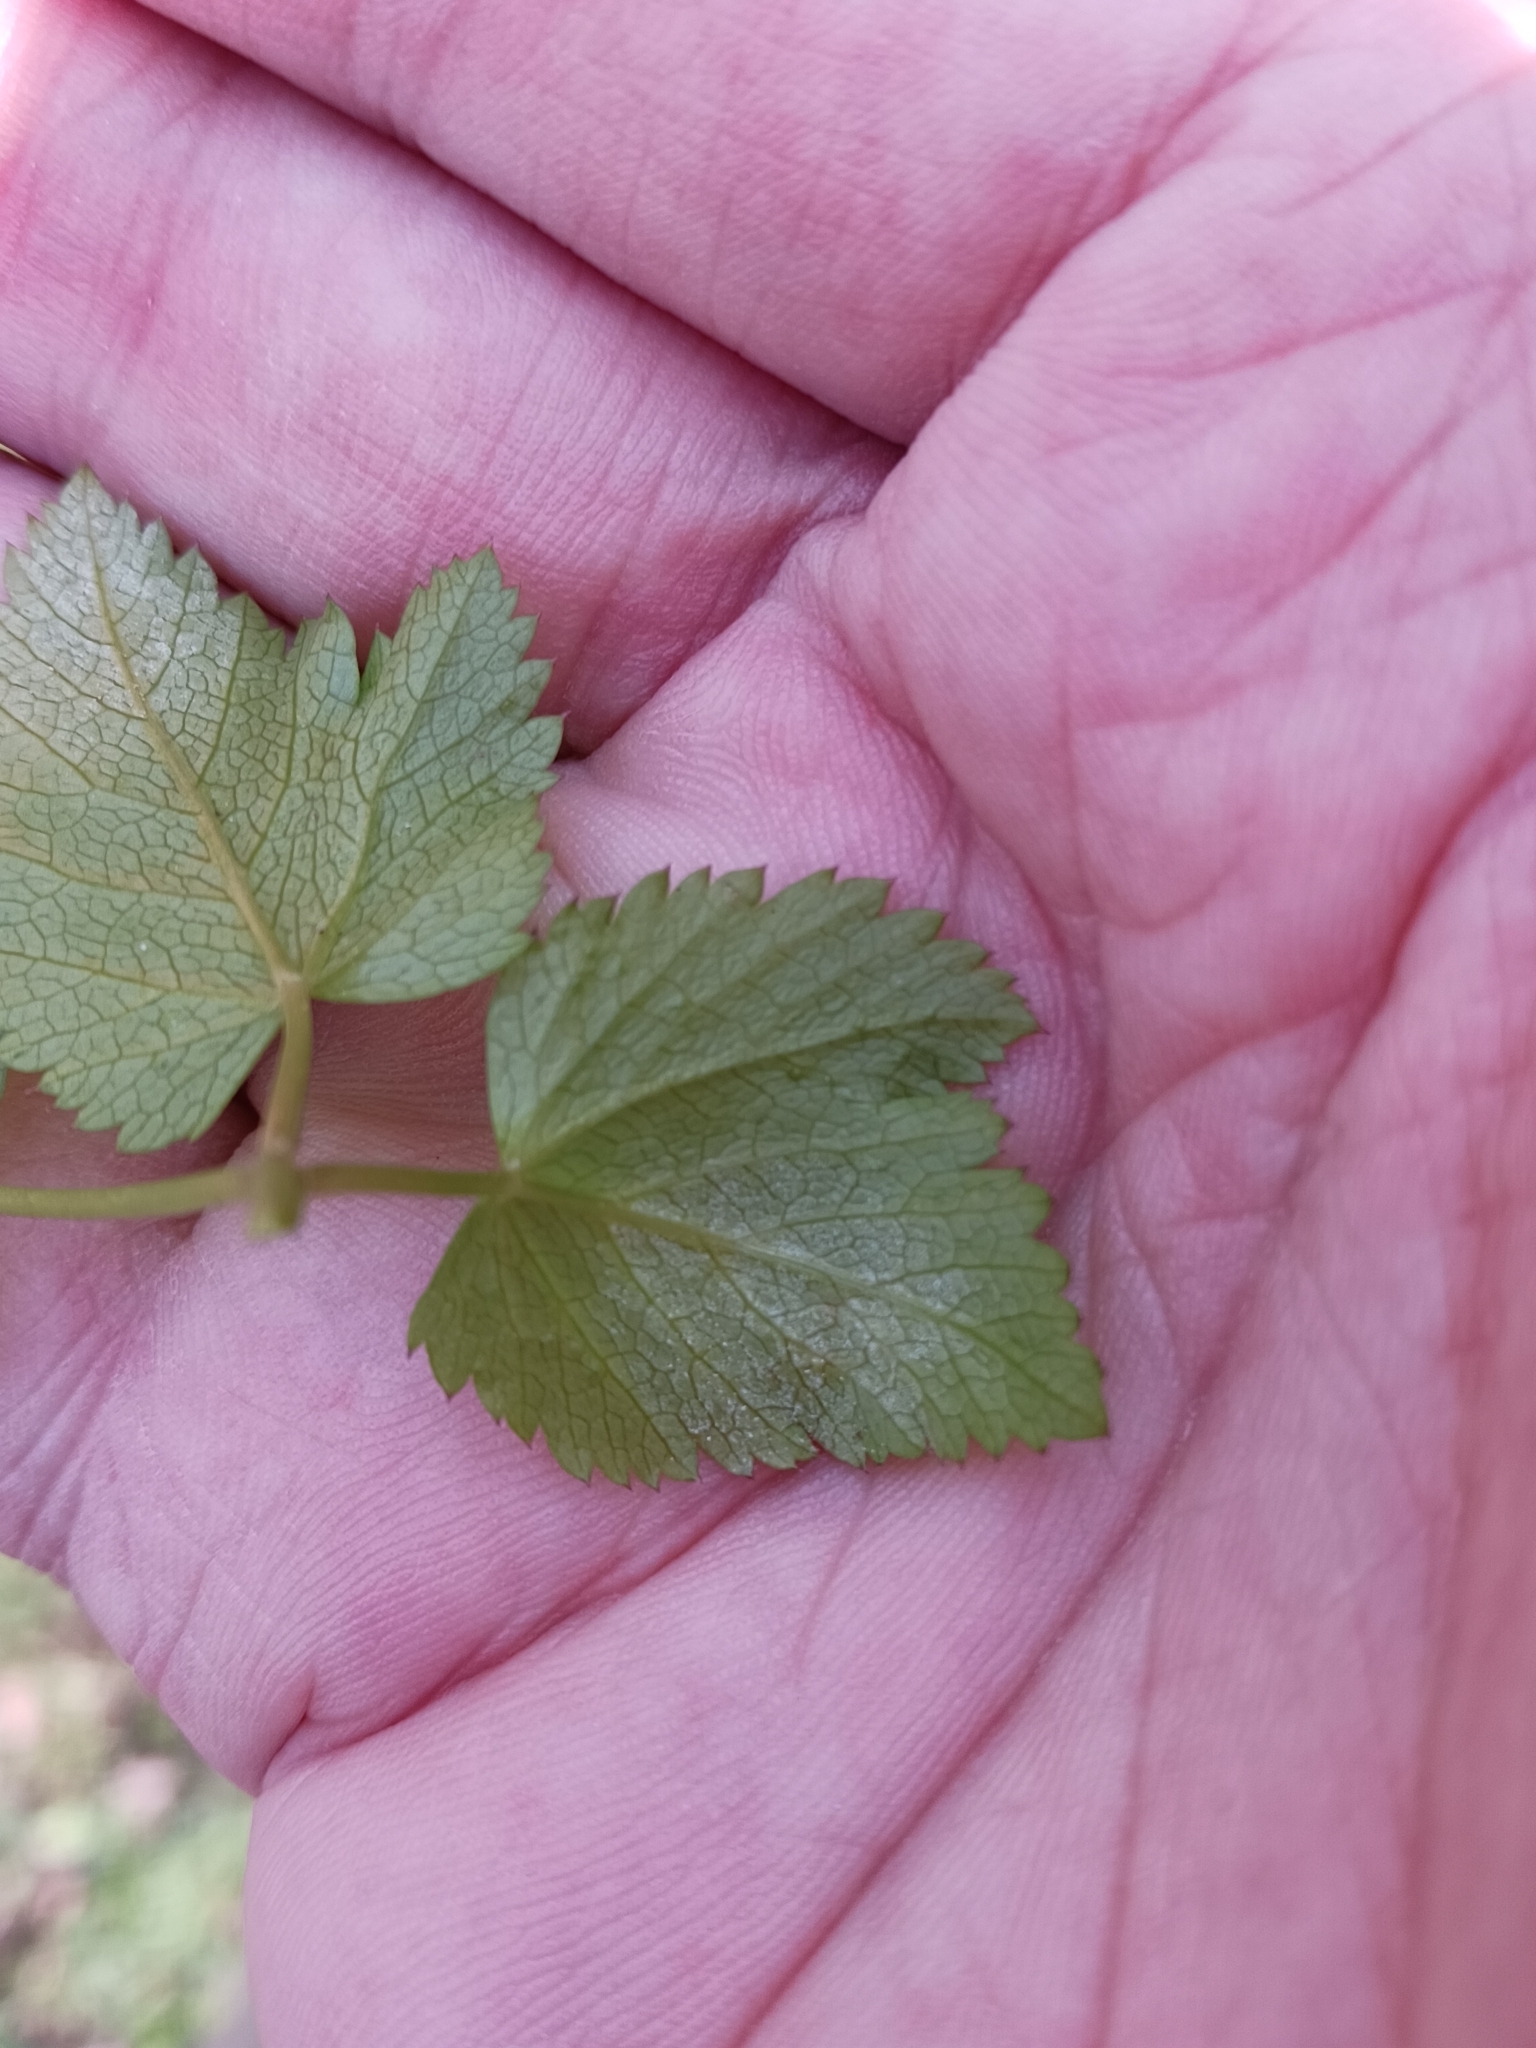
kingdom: Chromista
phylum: Oomycota
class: Peronosporea
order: Peronosporales
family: Peronosporaceae
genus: Peronospora
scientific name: Peronospora crustosa
